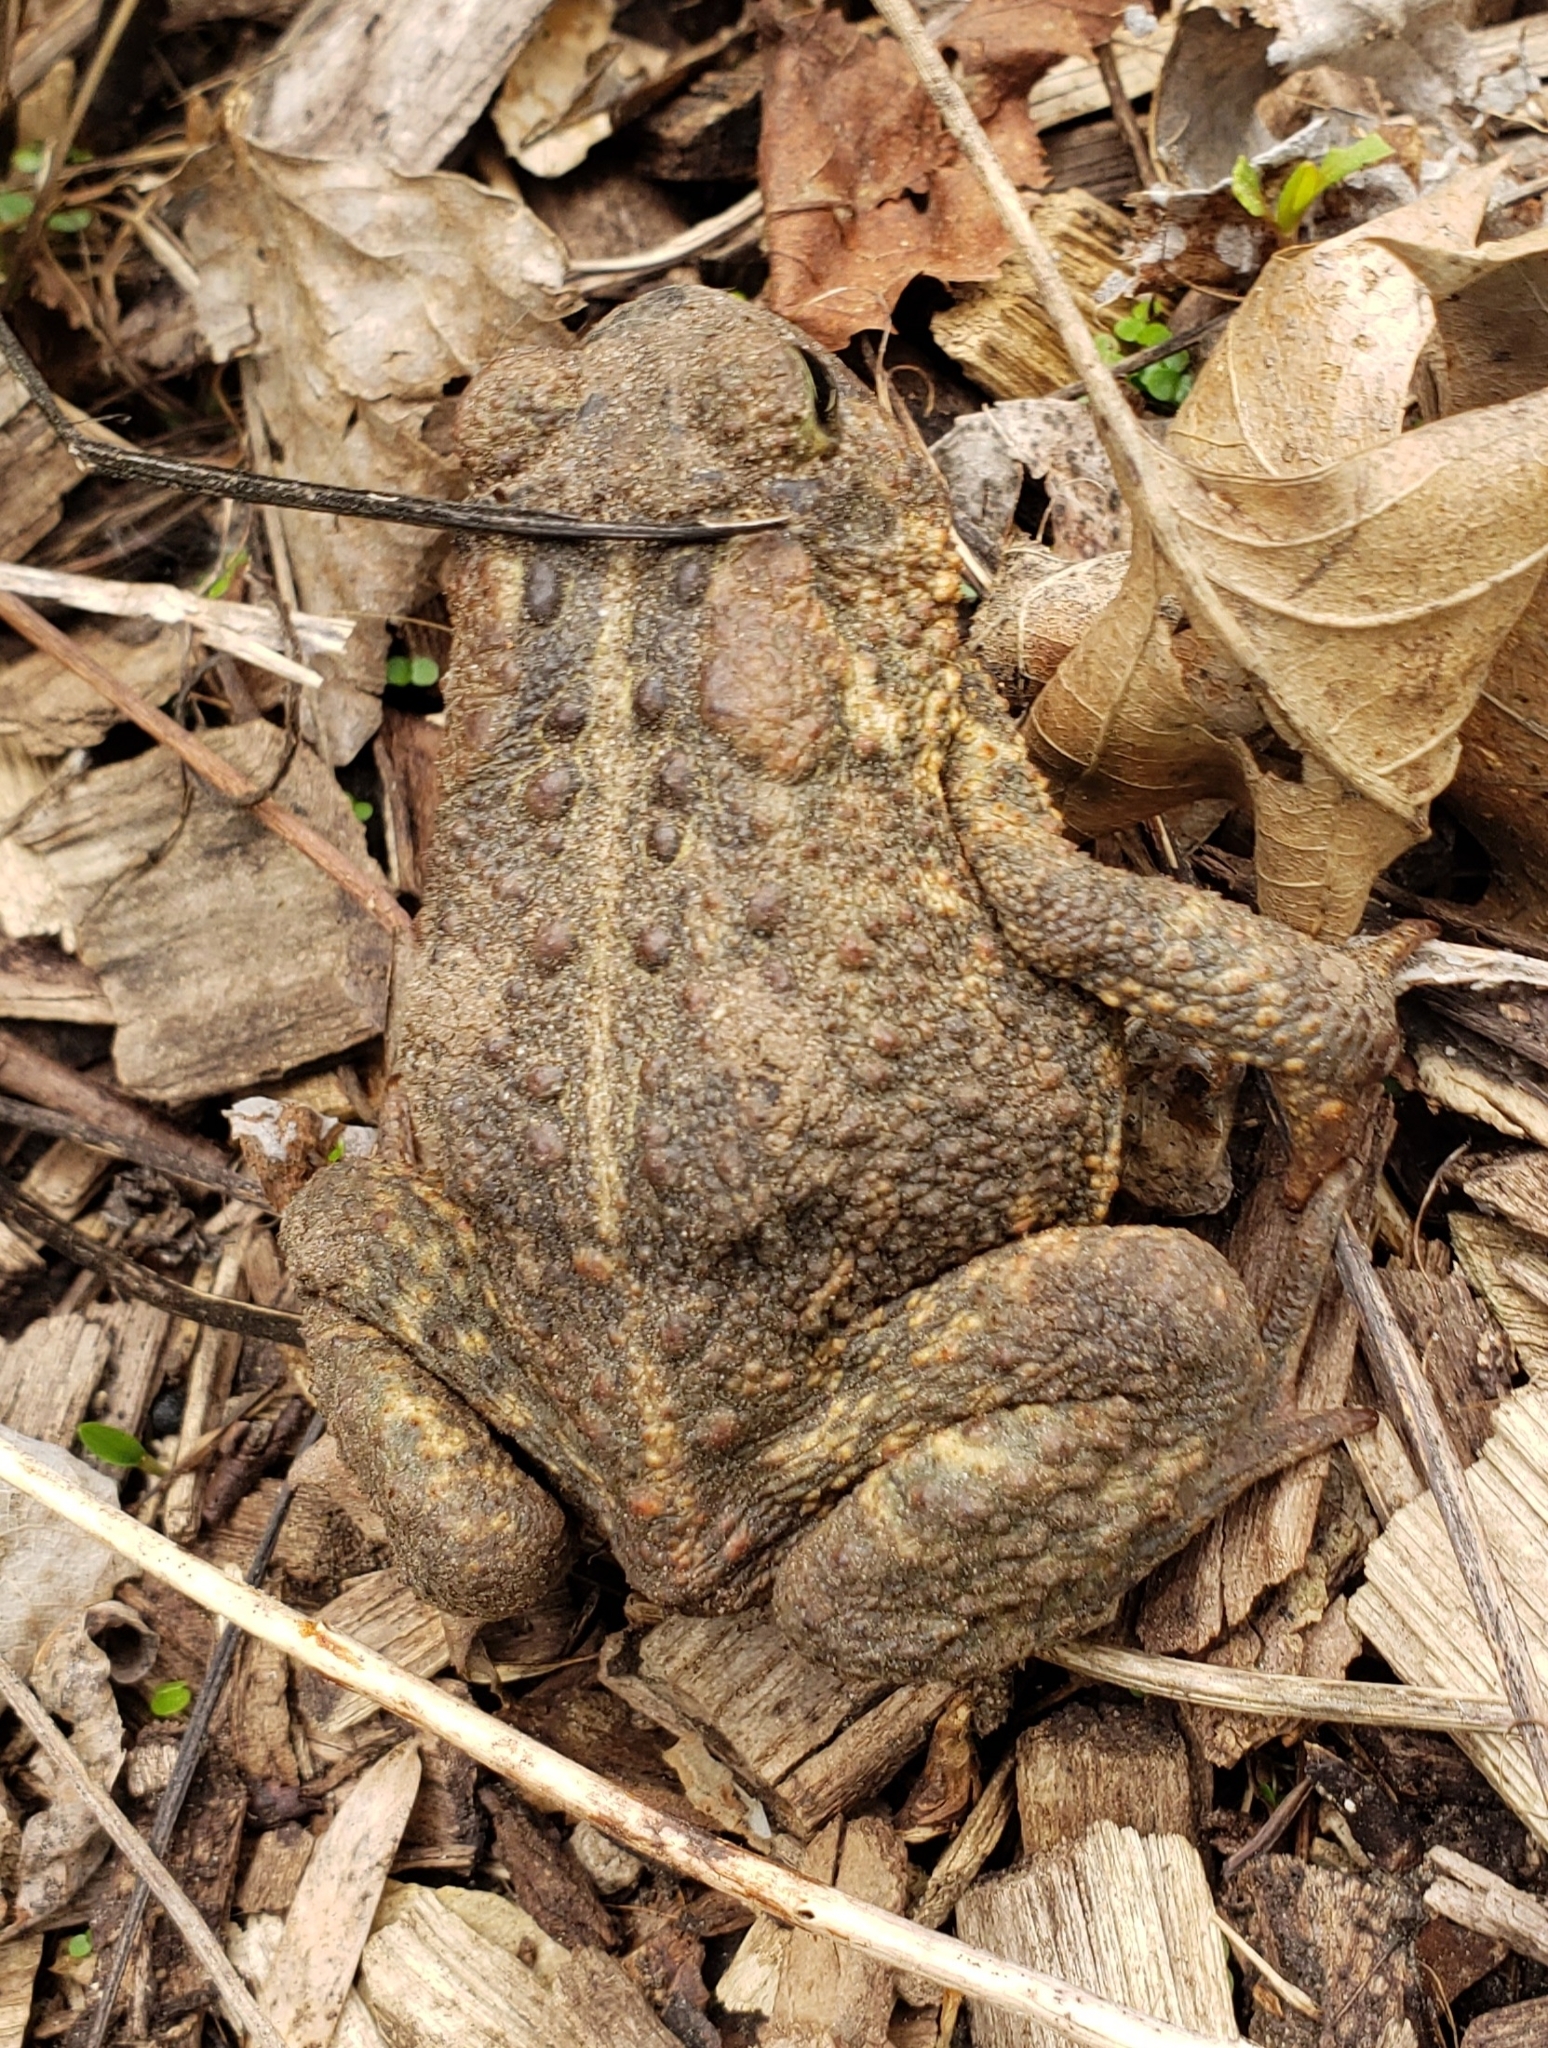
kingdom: Animalia
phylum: Chordata
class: Amphibia
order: Anura
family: Bufonidae
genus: Anaxyrus
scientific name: Anaxyrus americanus
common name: American toad
